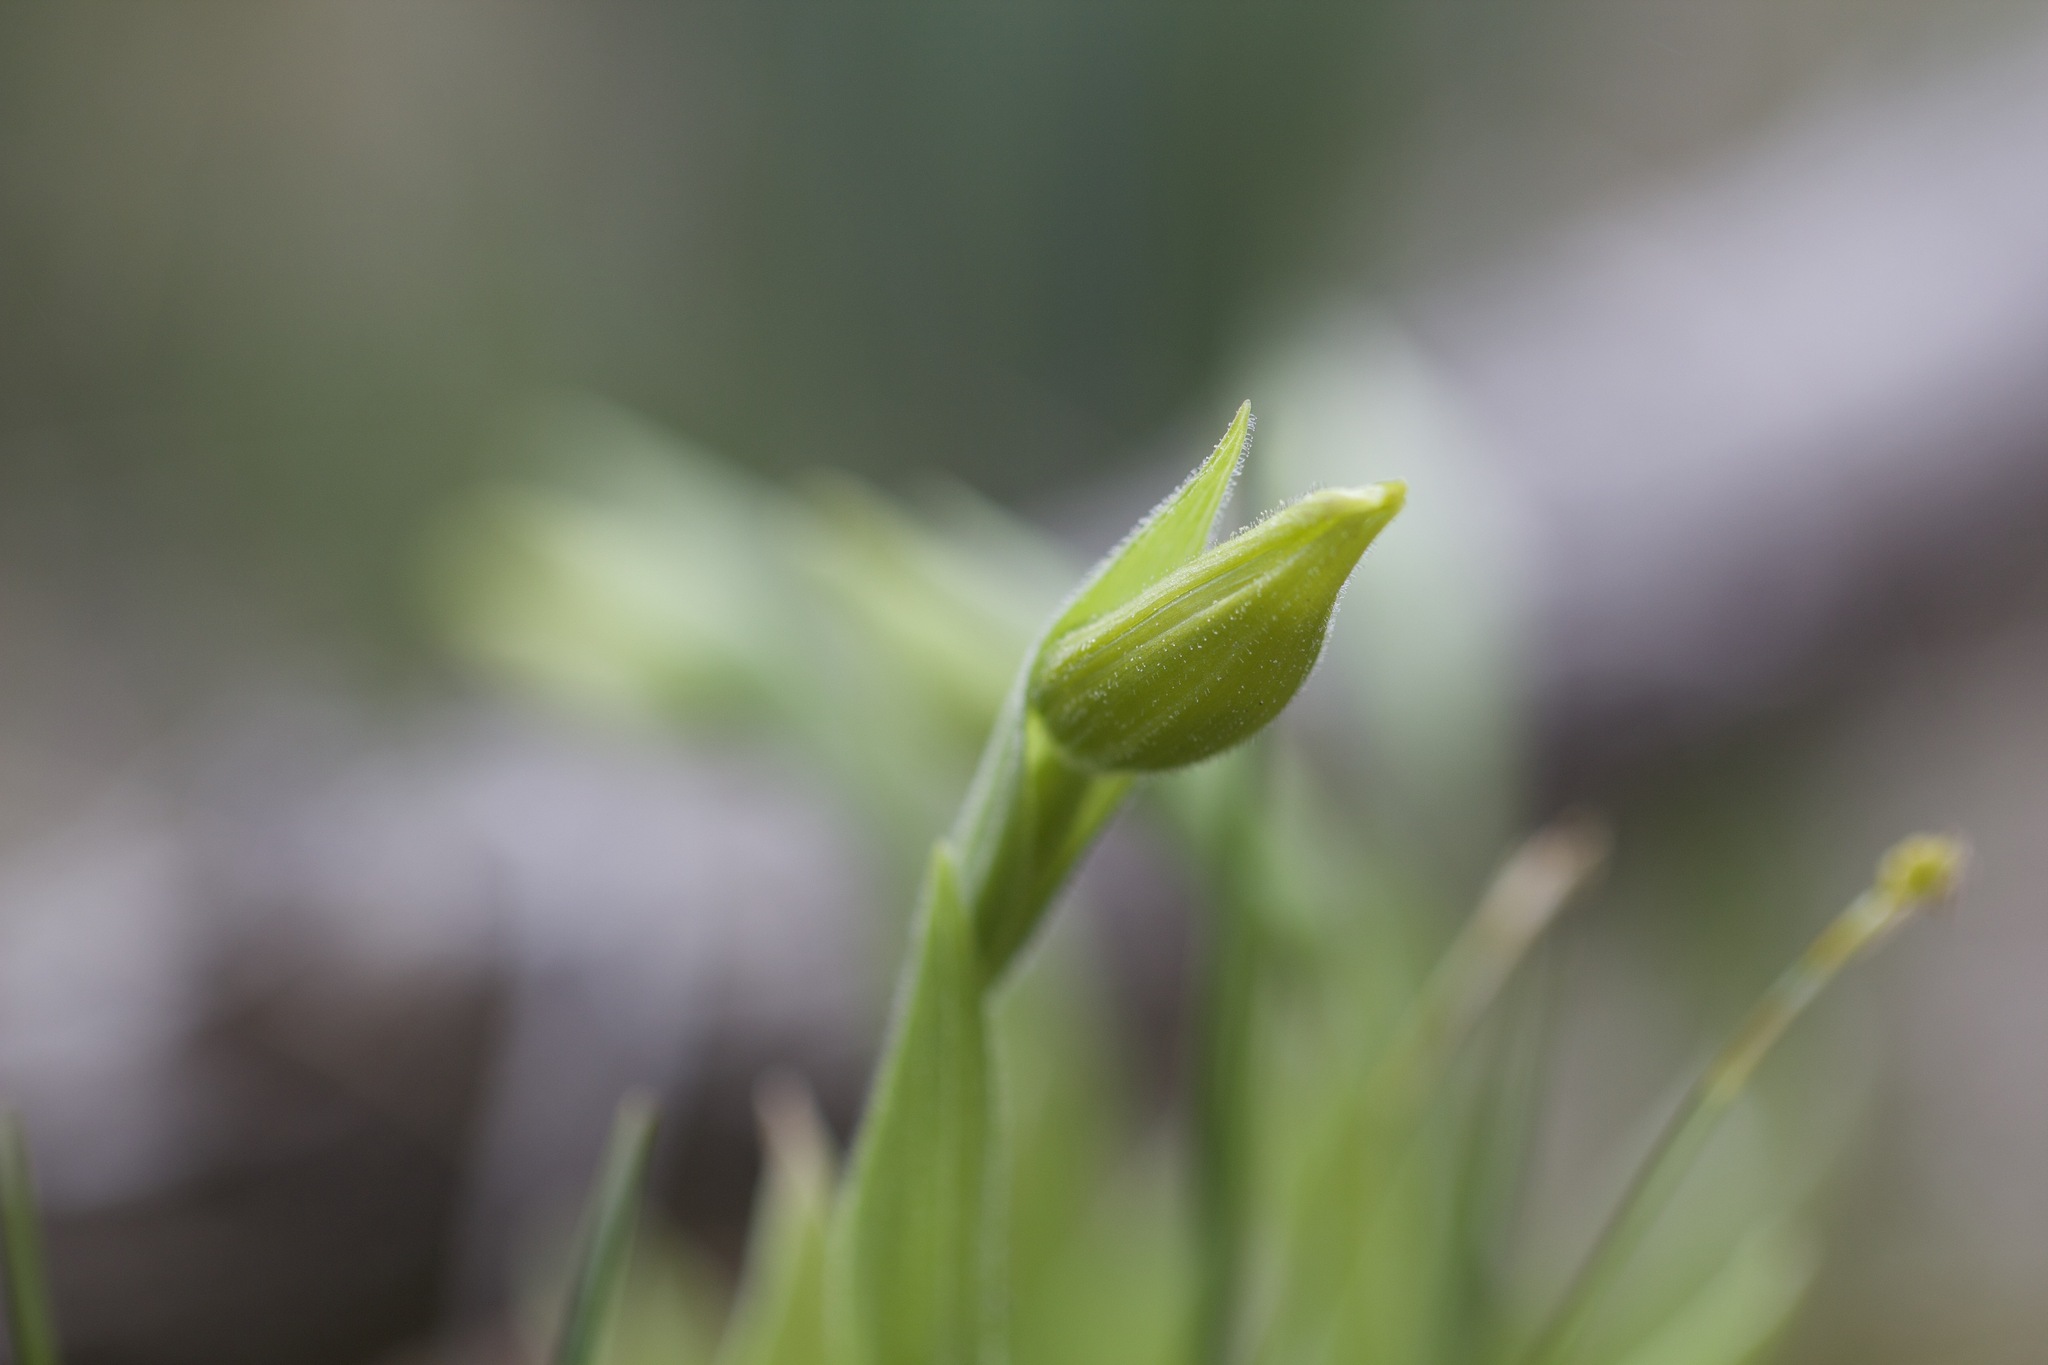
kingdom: Plantae
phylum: Tracheophyta
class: Liliopsida
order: Asparagales
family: Orchidaceae
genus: Cypripedium
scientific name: Cypripedium parviflorum
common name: American yellow lady's-slipper
